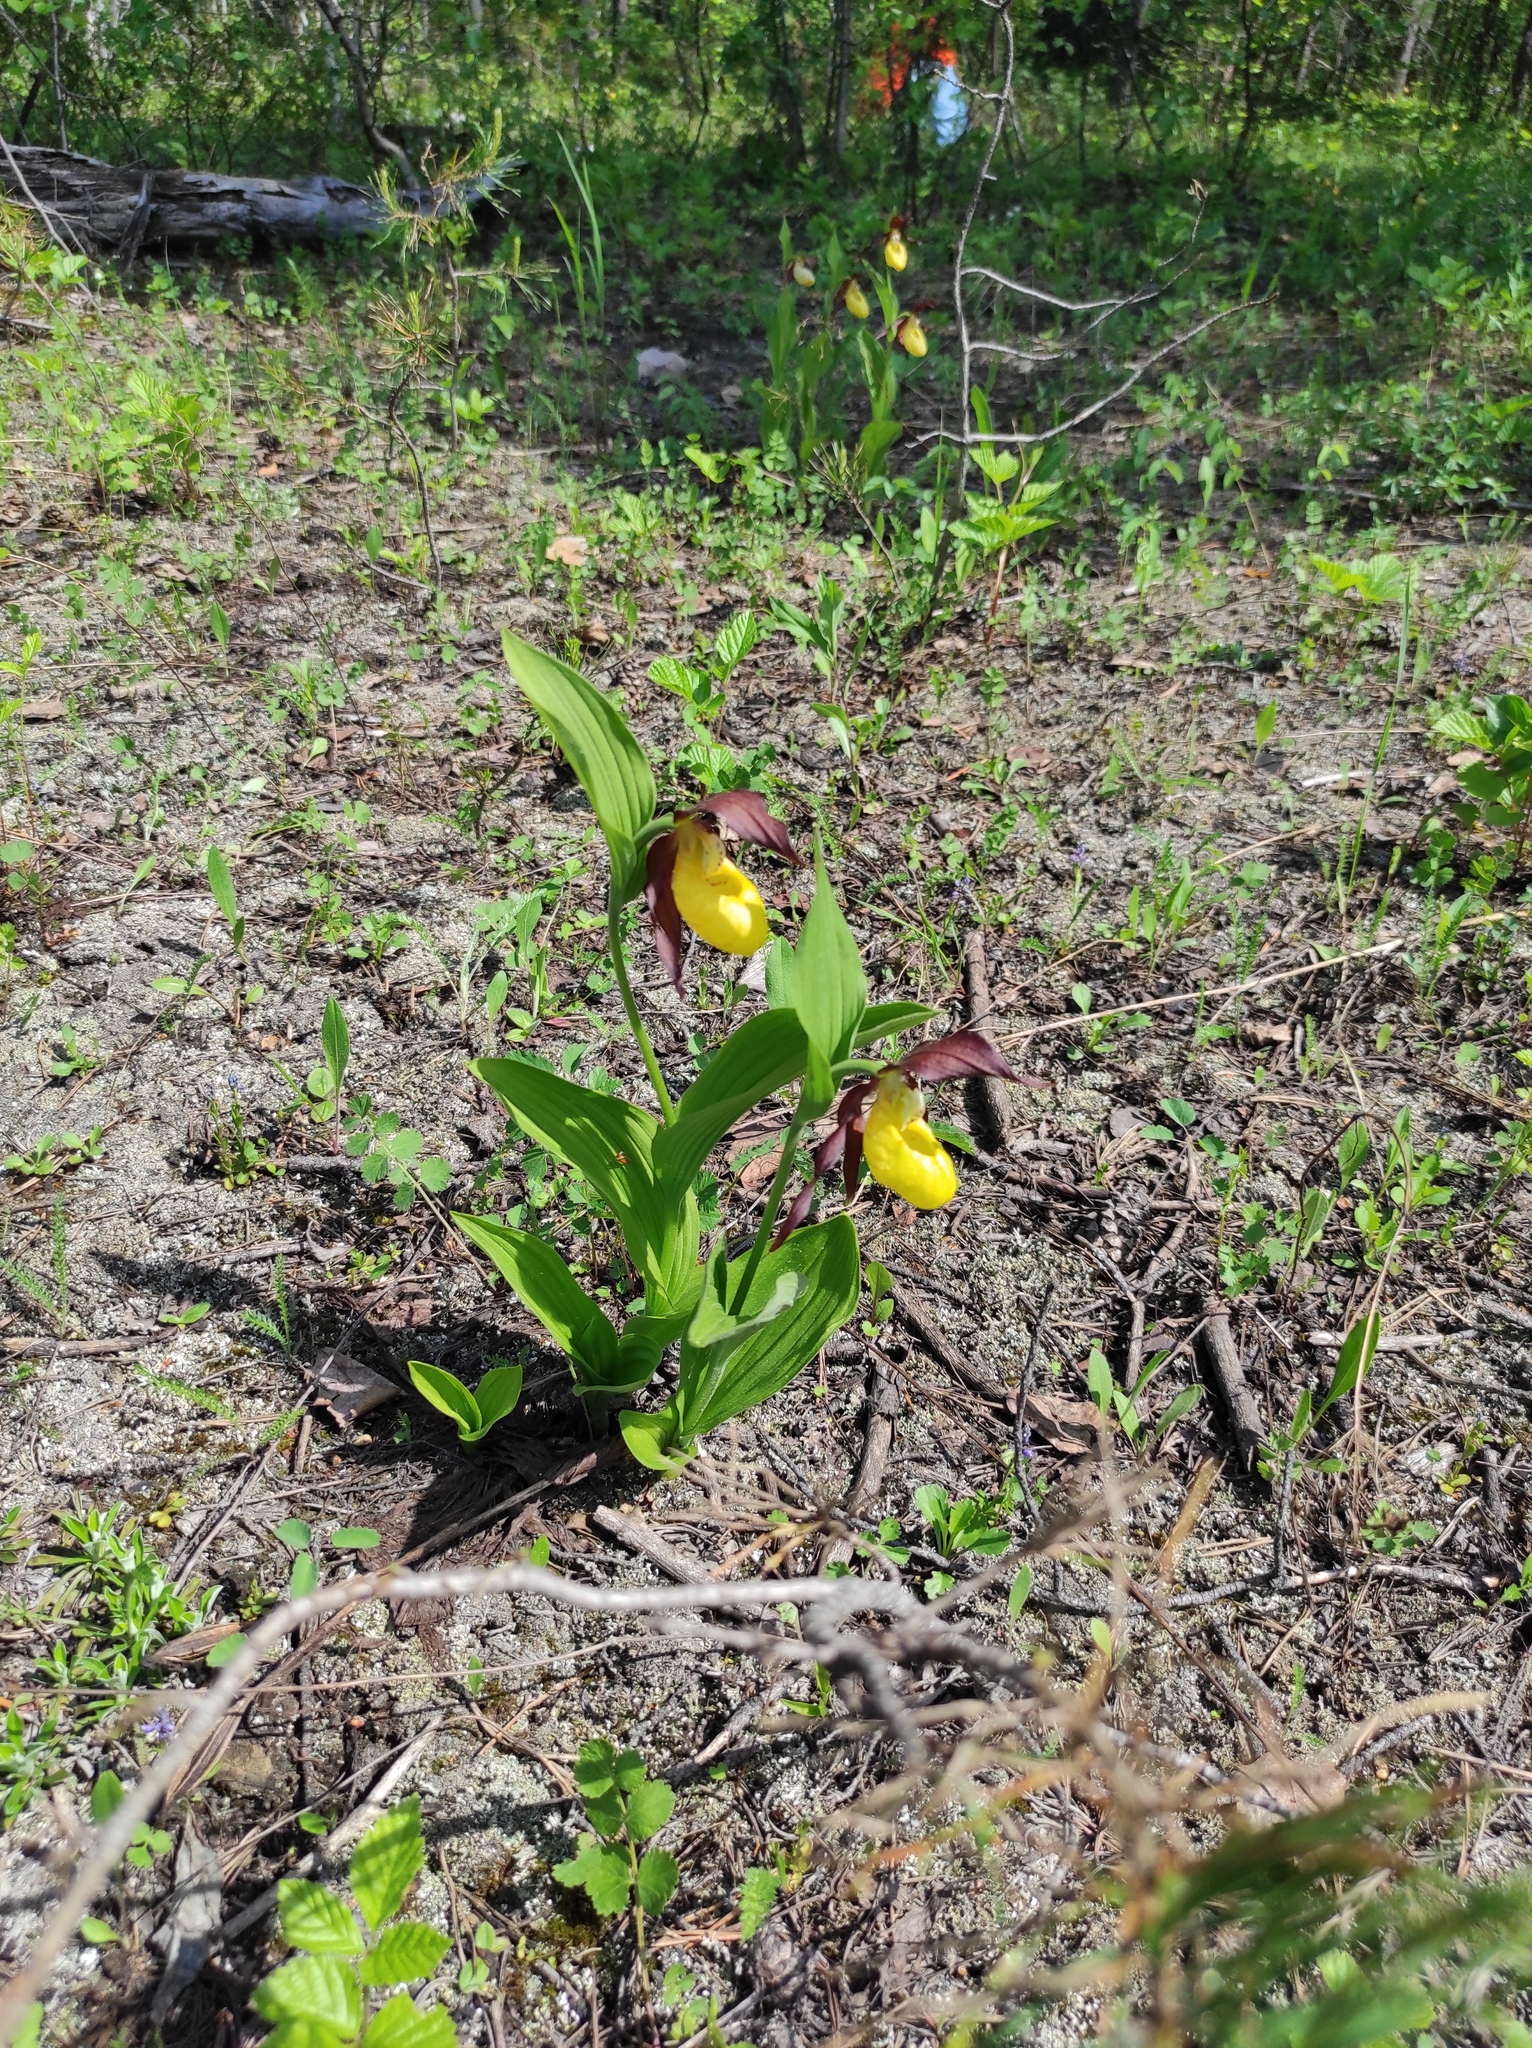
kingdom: Plantae
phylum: Tracheophyta
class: Liliopsida
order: Asparagales
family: Orchidaceae
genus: Cypripedium
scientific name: Cypripedium calceolus
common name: Lady's-slipper
